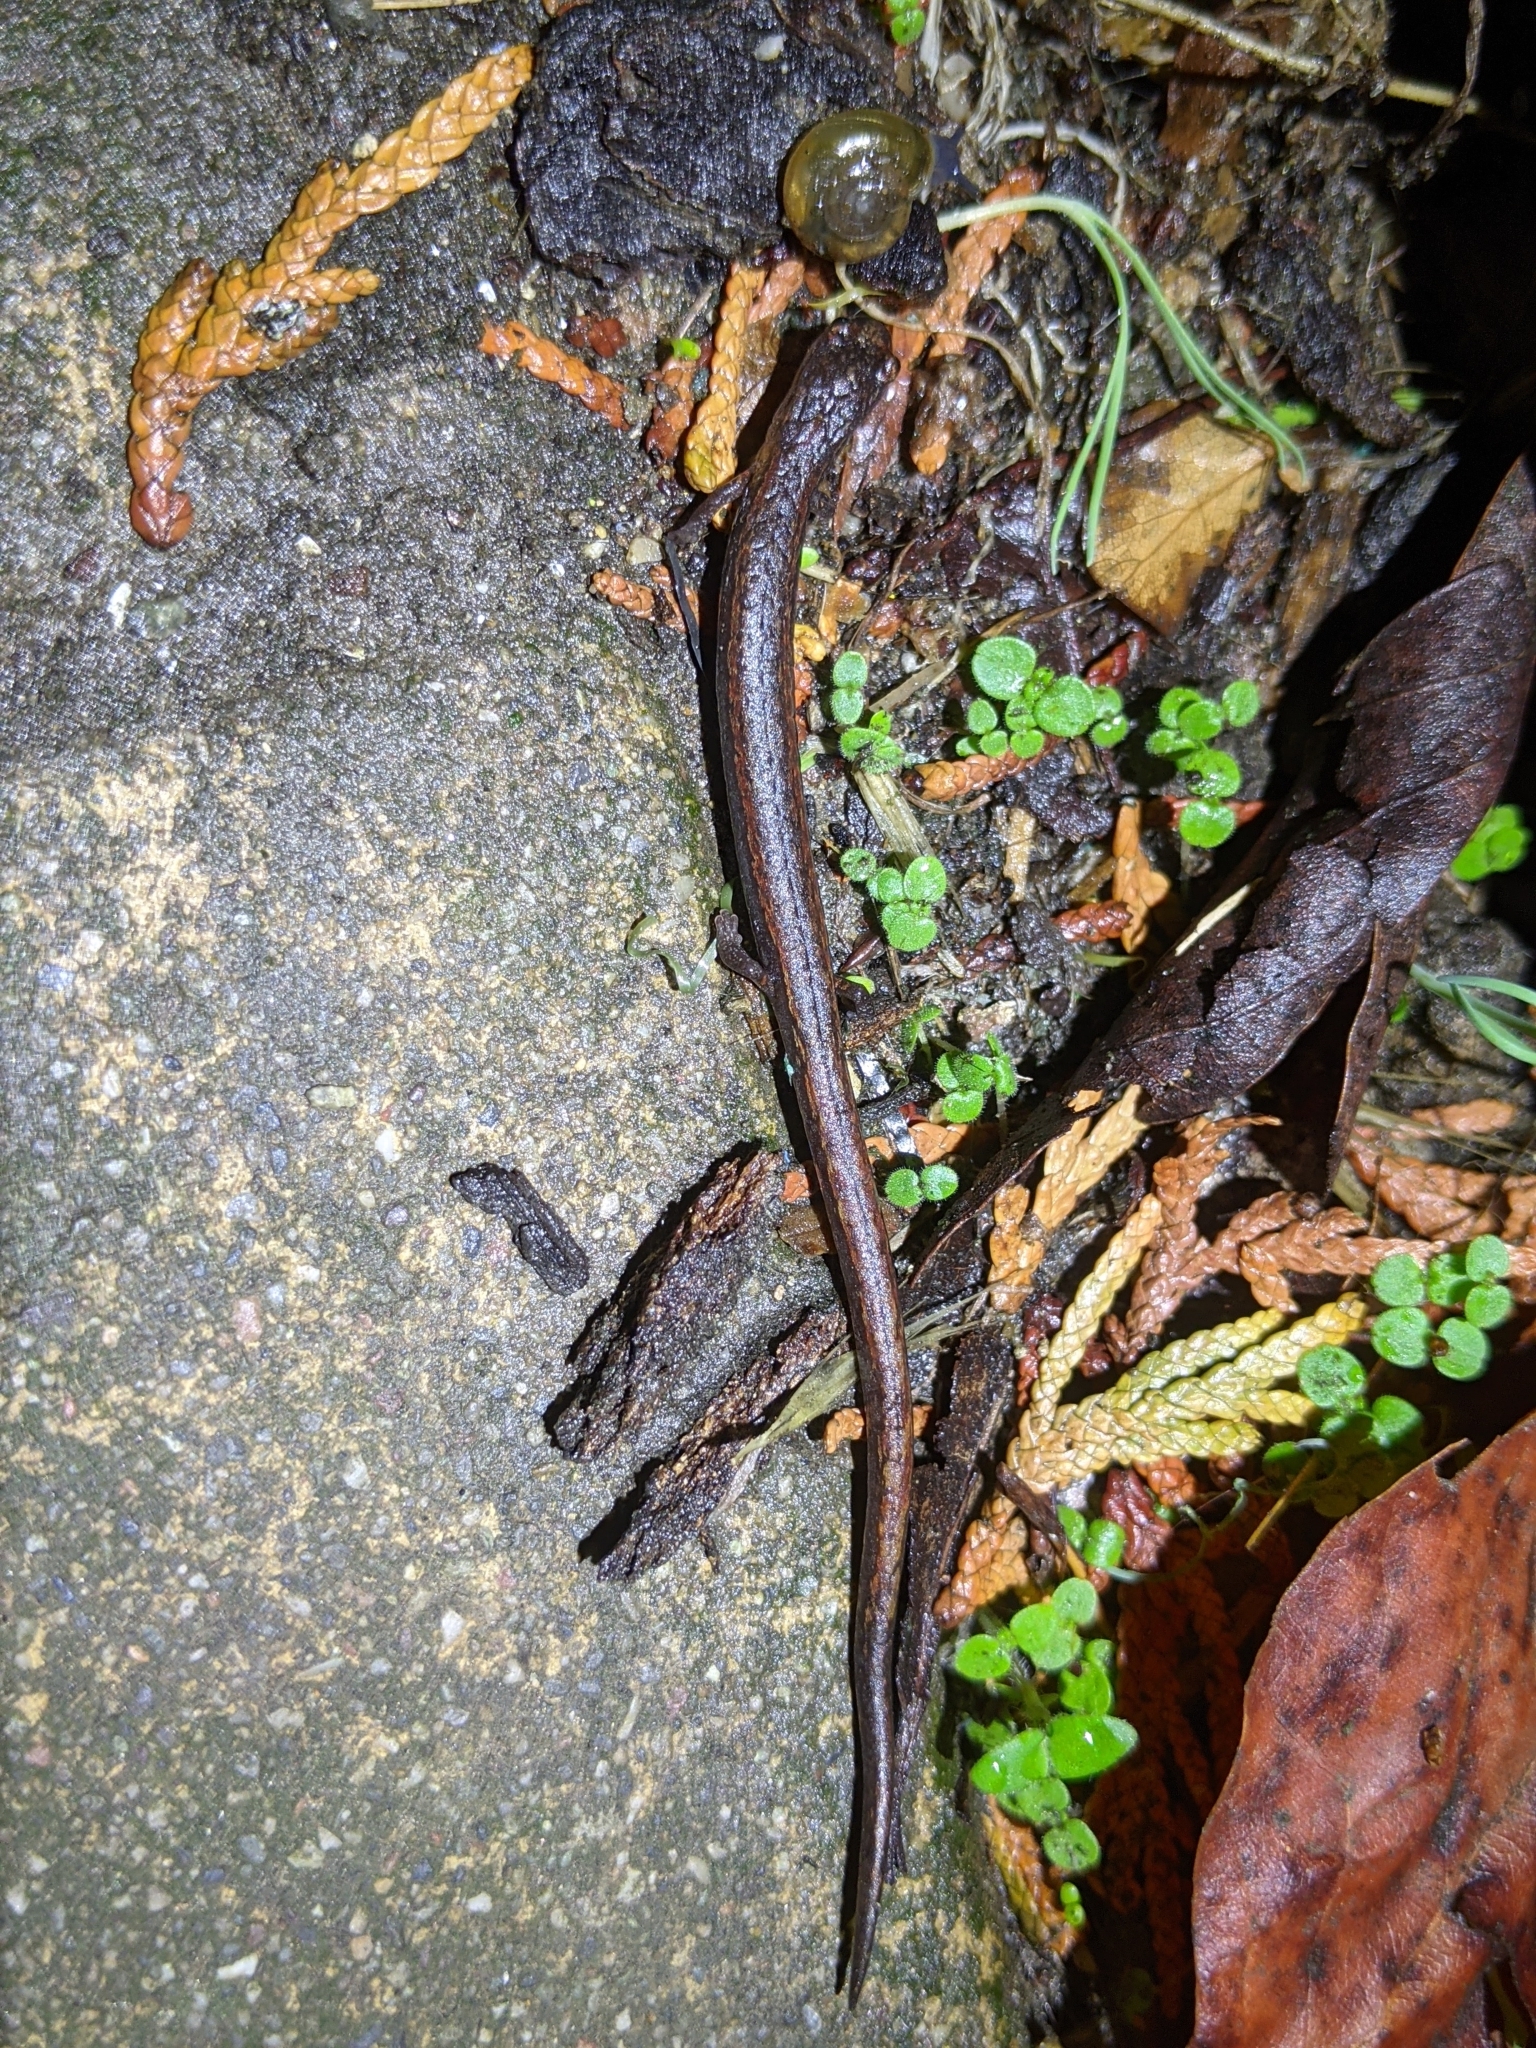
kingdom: Animalia
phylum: Chordata
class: Amphibia
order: Caudata
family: Plethodontidae
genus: Batrachoseps
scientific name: Batrachoseps attenuatus
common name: California slender salamander
